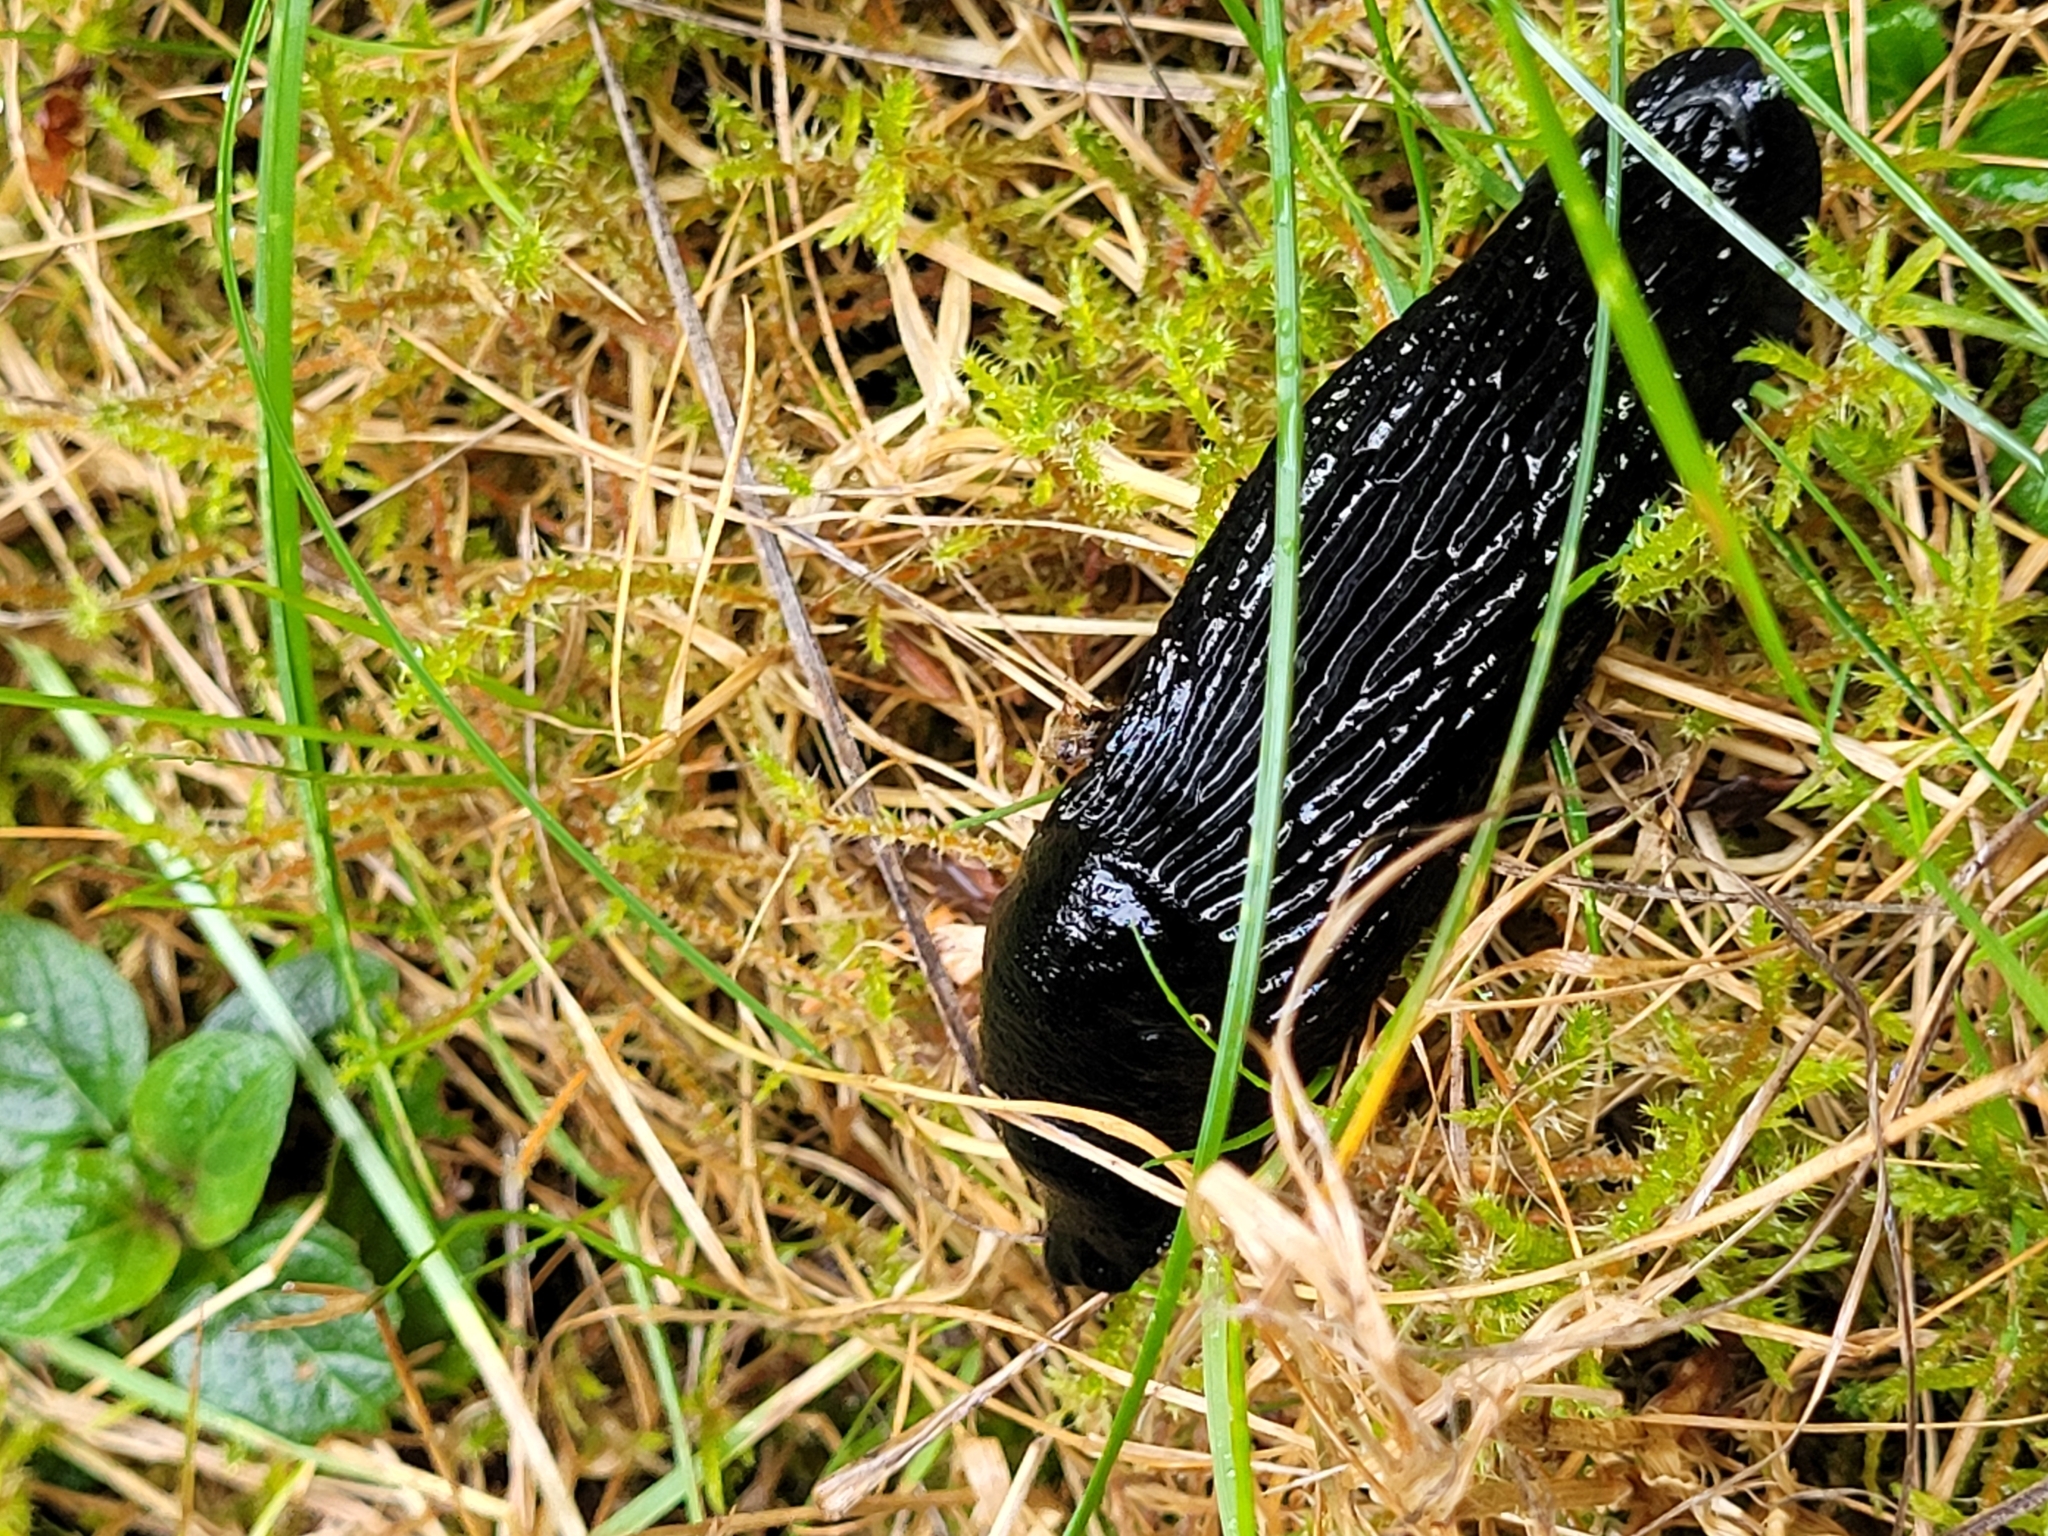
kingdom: Animalia
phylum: Mollusca
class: Gastropoda
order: Stylommatophora
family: Arionidae
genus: Arion
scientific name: Arion
